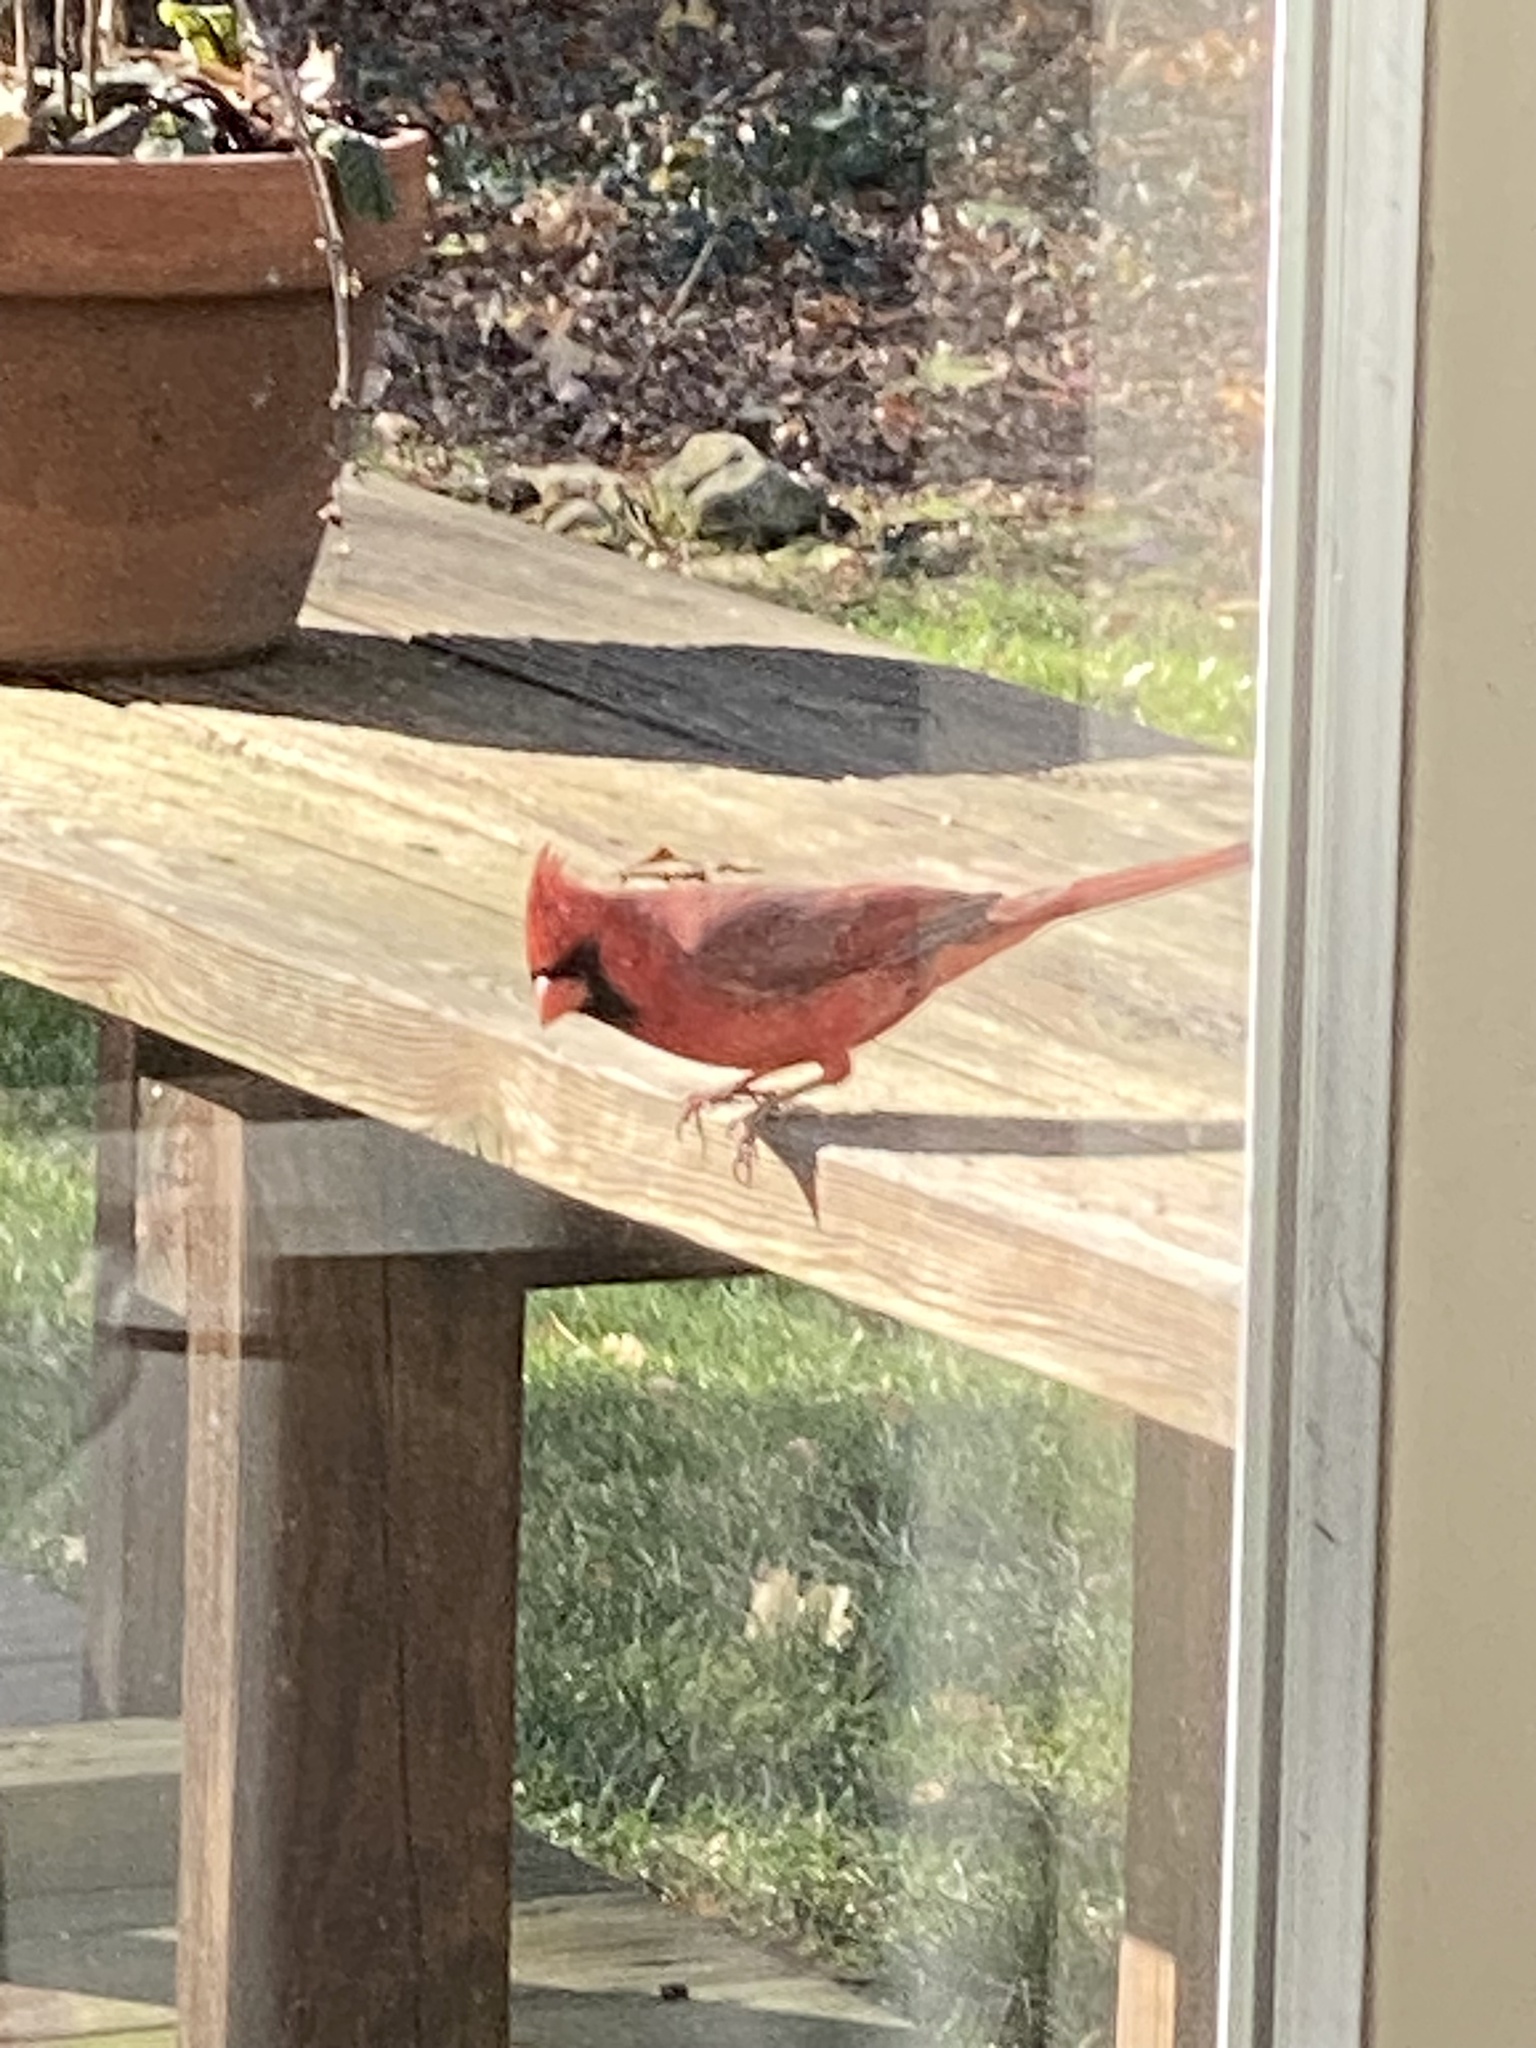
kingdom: Animalia
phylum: Chordata
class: Aves
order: Passeriformes
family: Cardinalidae
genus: Cardinalis
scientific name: Cardinalis cardinalis
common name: Northern cardinal
